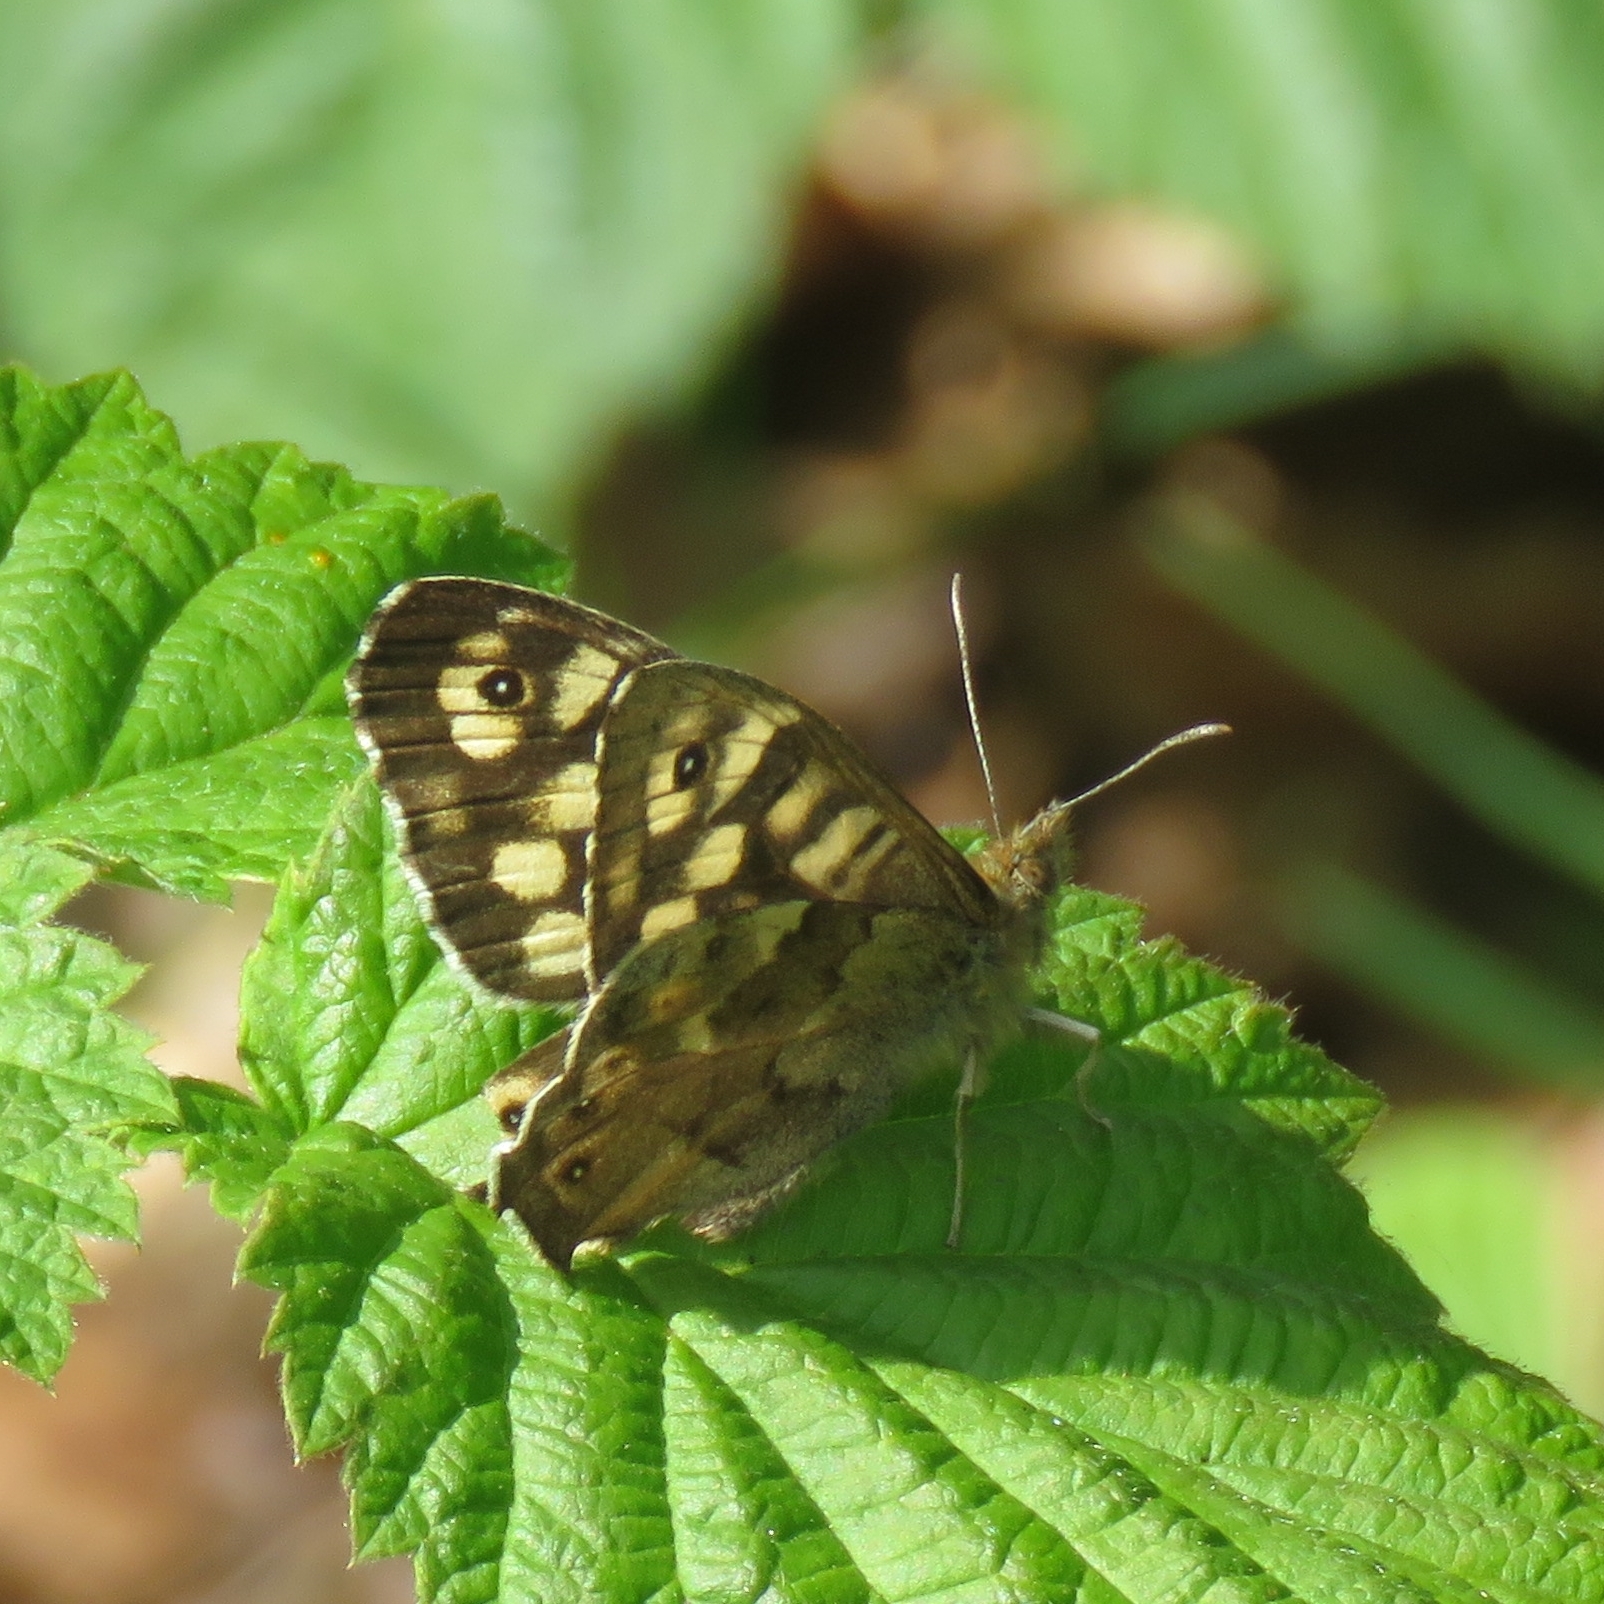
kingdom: Animalia
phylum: Arthropoda
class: Insecta
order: Lepidoptera
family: Nymphalidae
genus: Pararge
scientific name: Pararge aegeria
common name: Speckled wood
